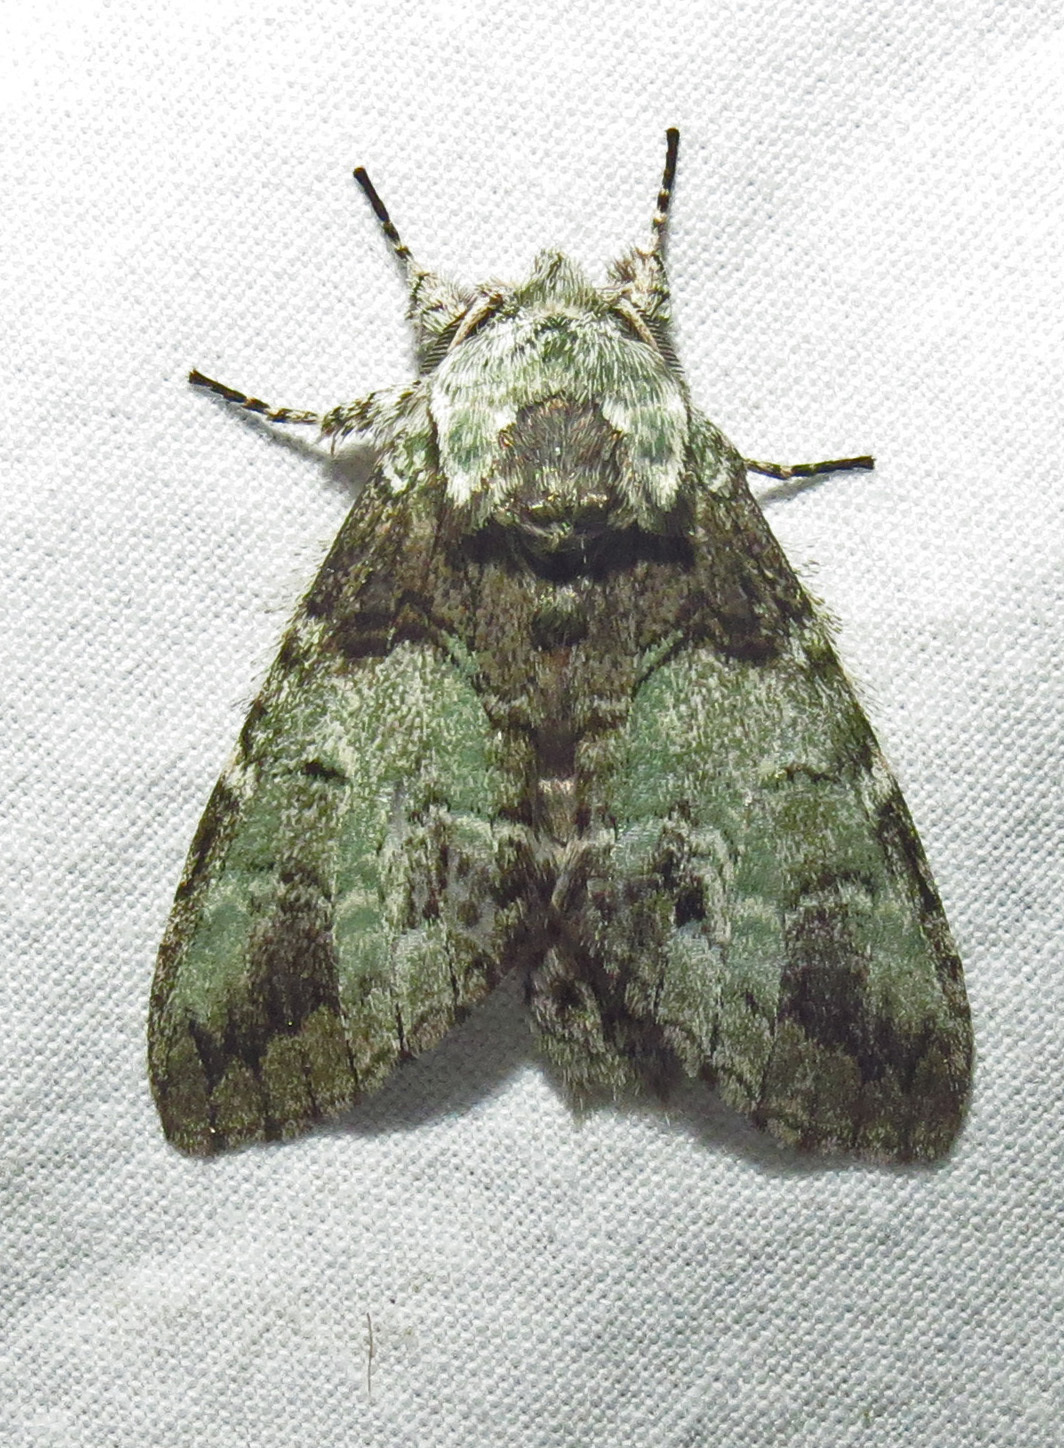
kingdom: Animalia
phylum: Arthropoda
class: Insecta
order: Lepidoptera
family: Notodontidae
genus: Macrurocampa
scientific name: Macrurocampa marthesia
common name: Mottled prominent
